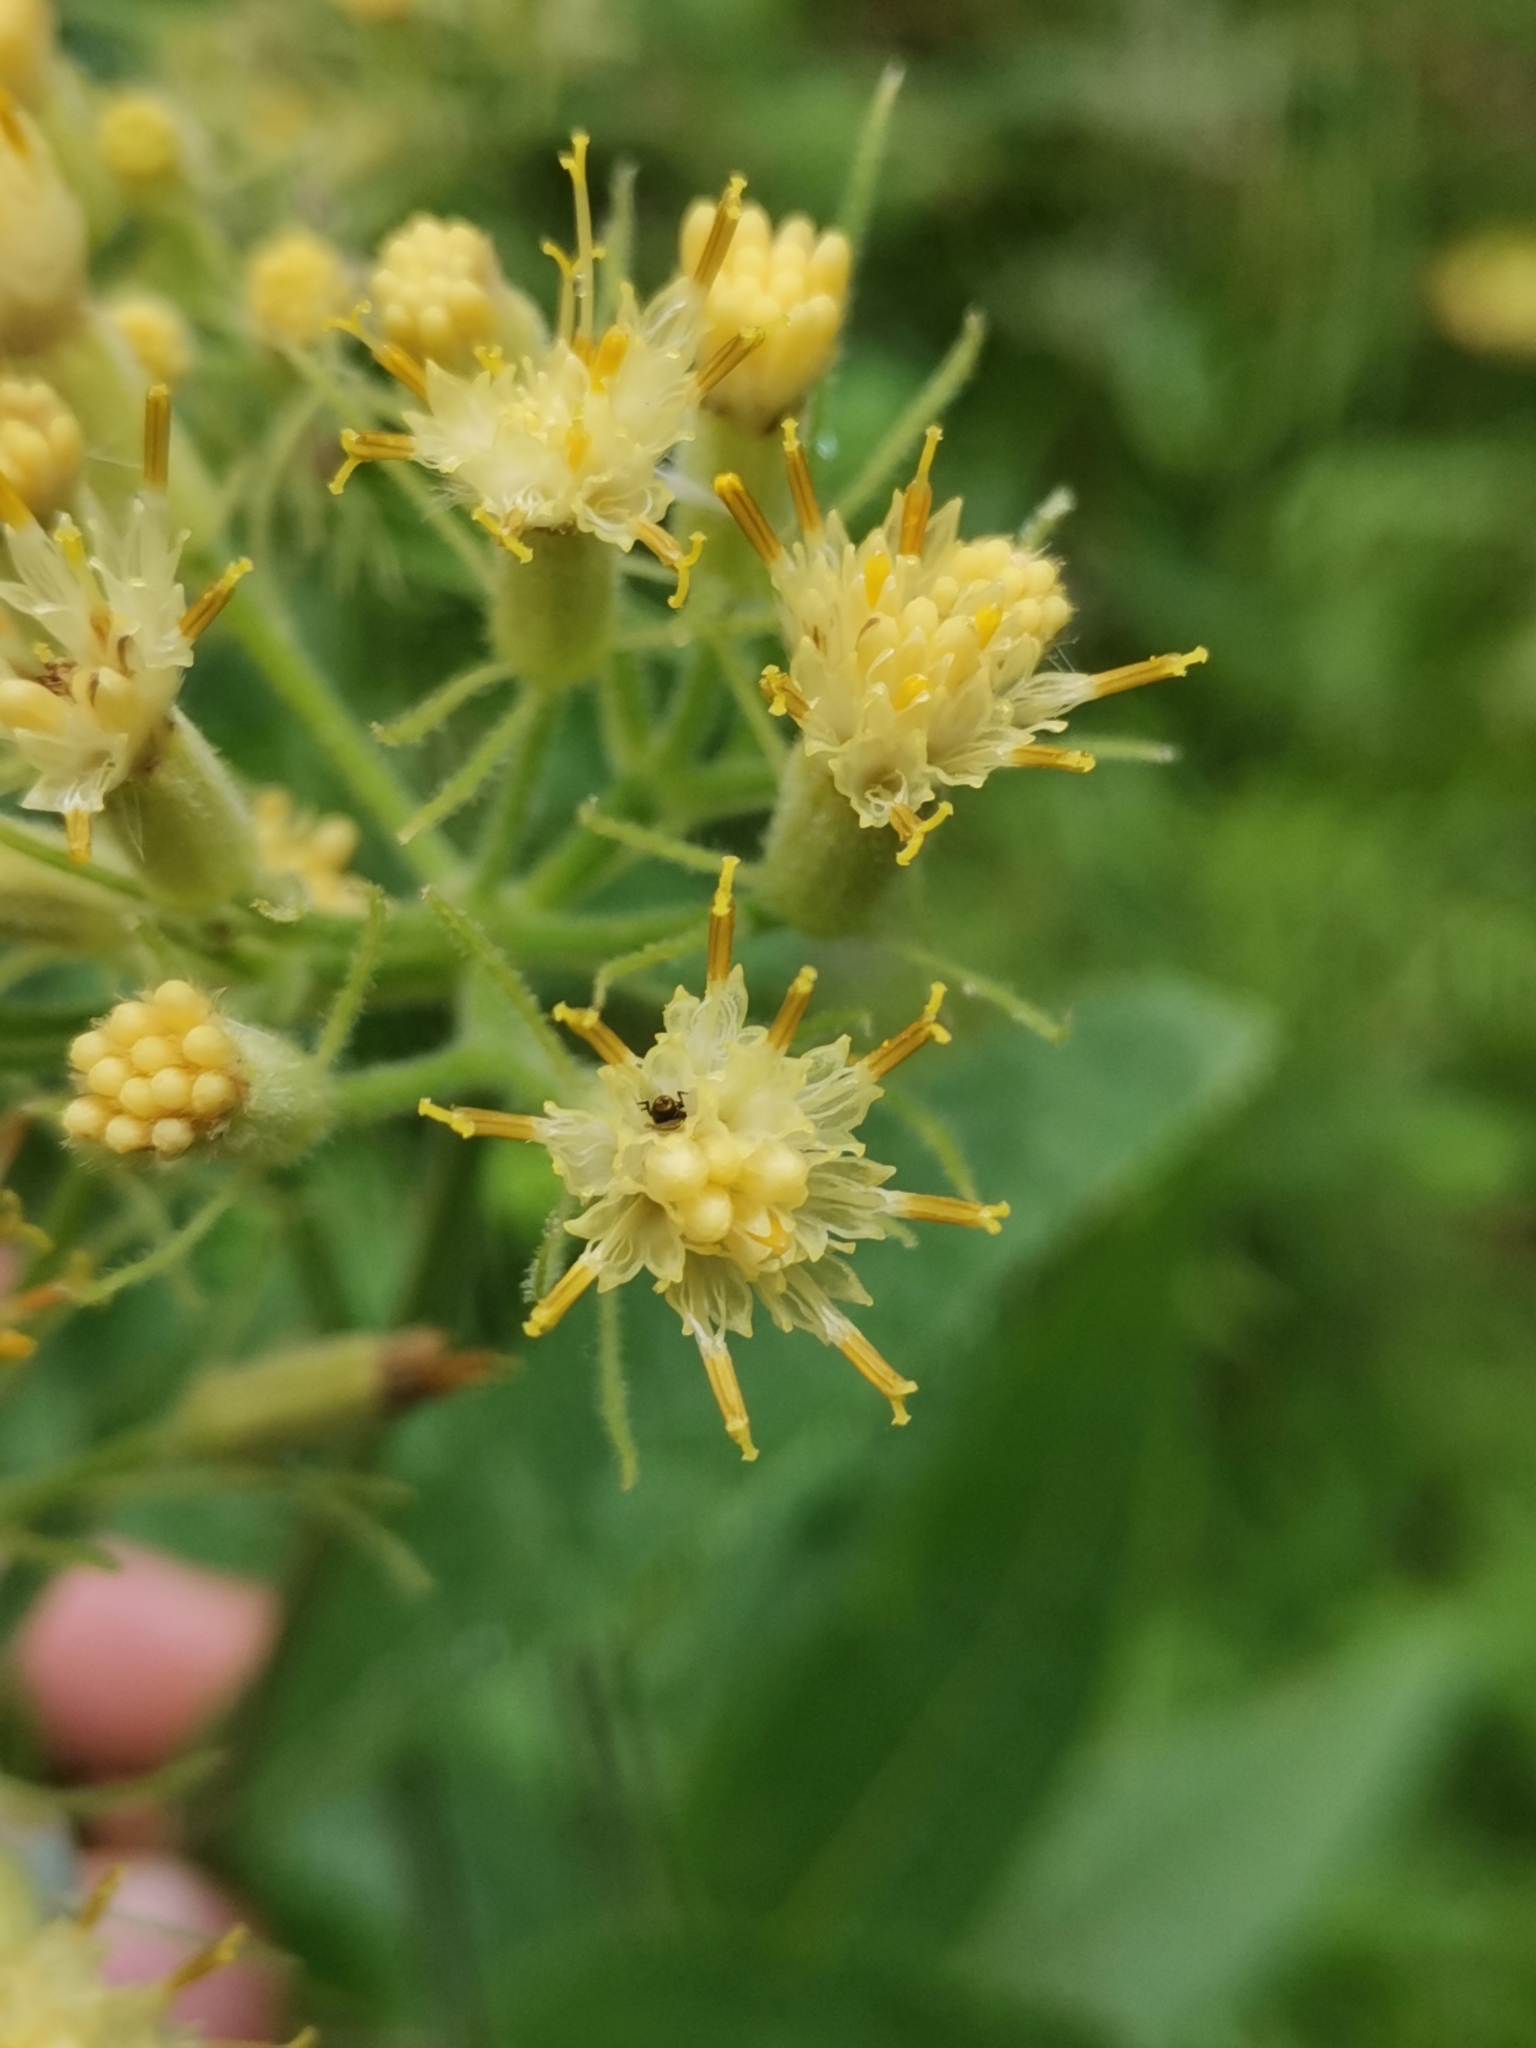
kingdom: Plantae
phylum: Tracheophyta
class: Magnoliopsida
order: Asterales
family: Asteraceae
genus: Senecio
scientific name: Senecio cacaliaster
